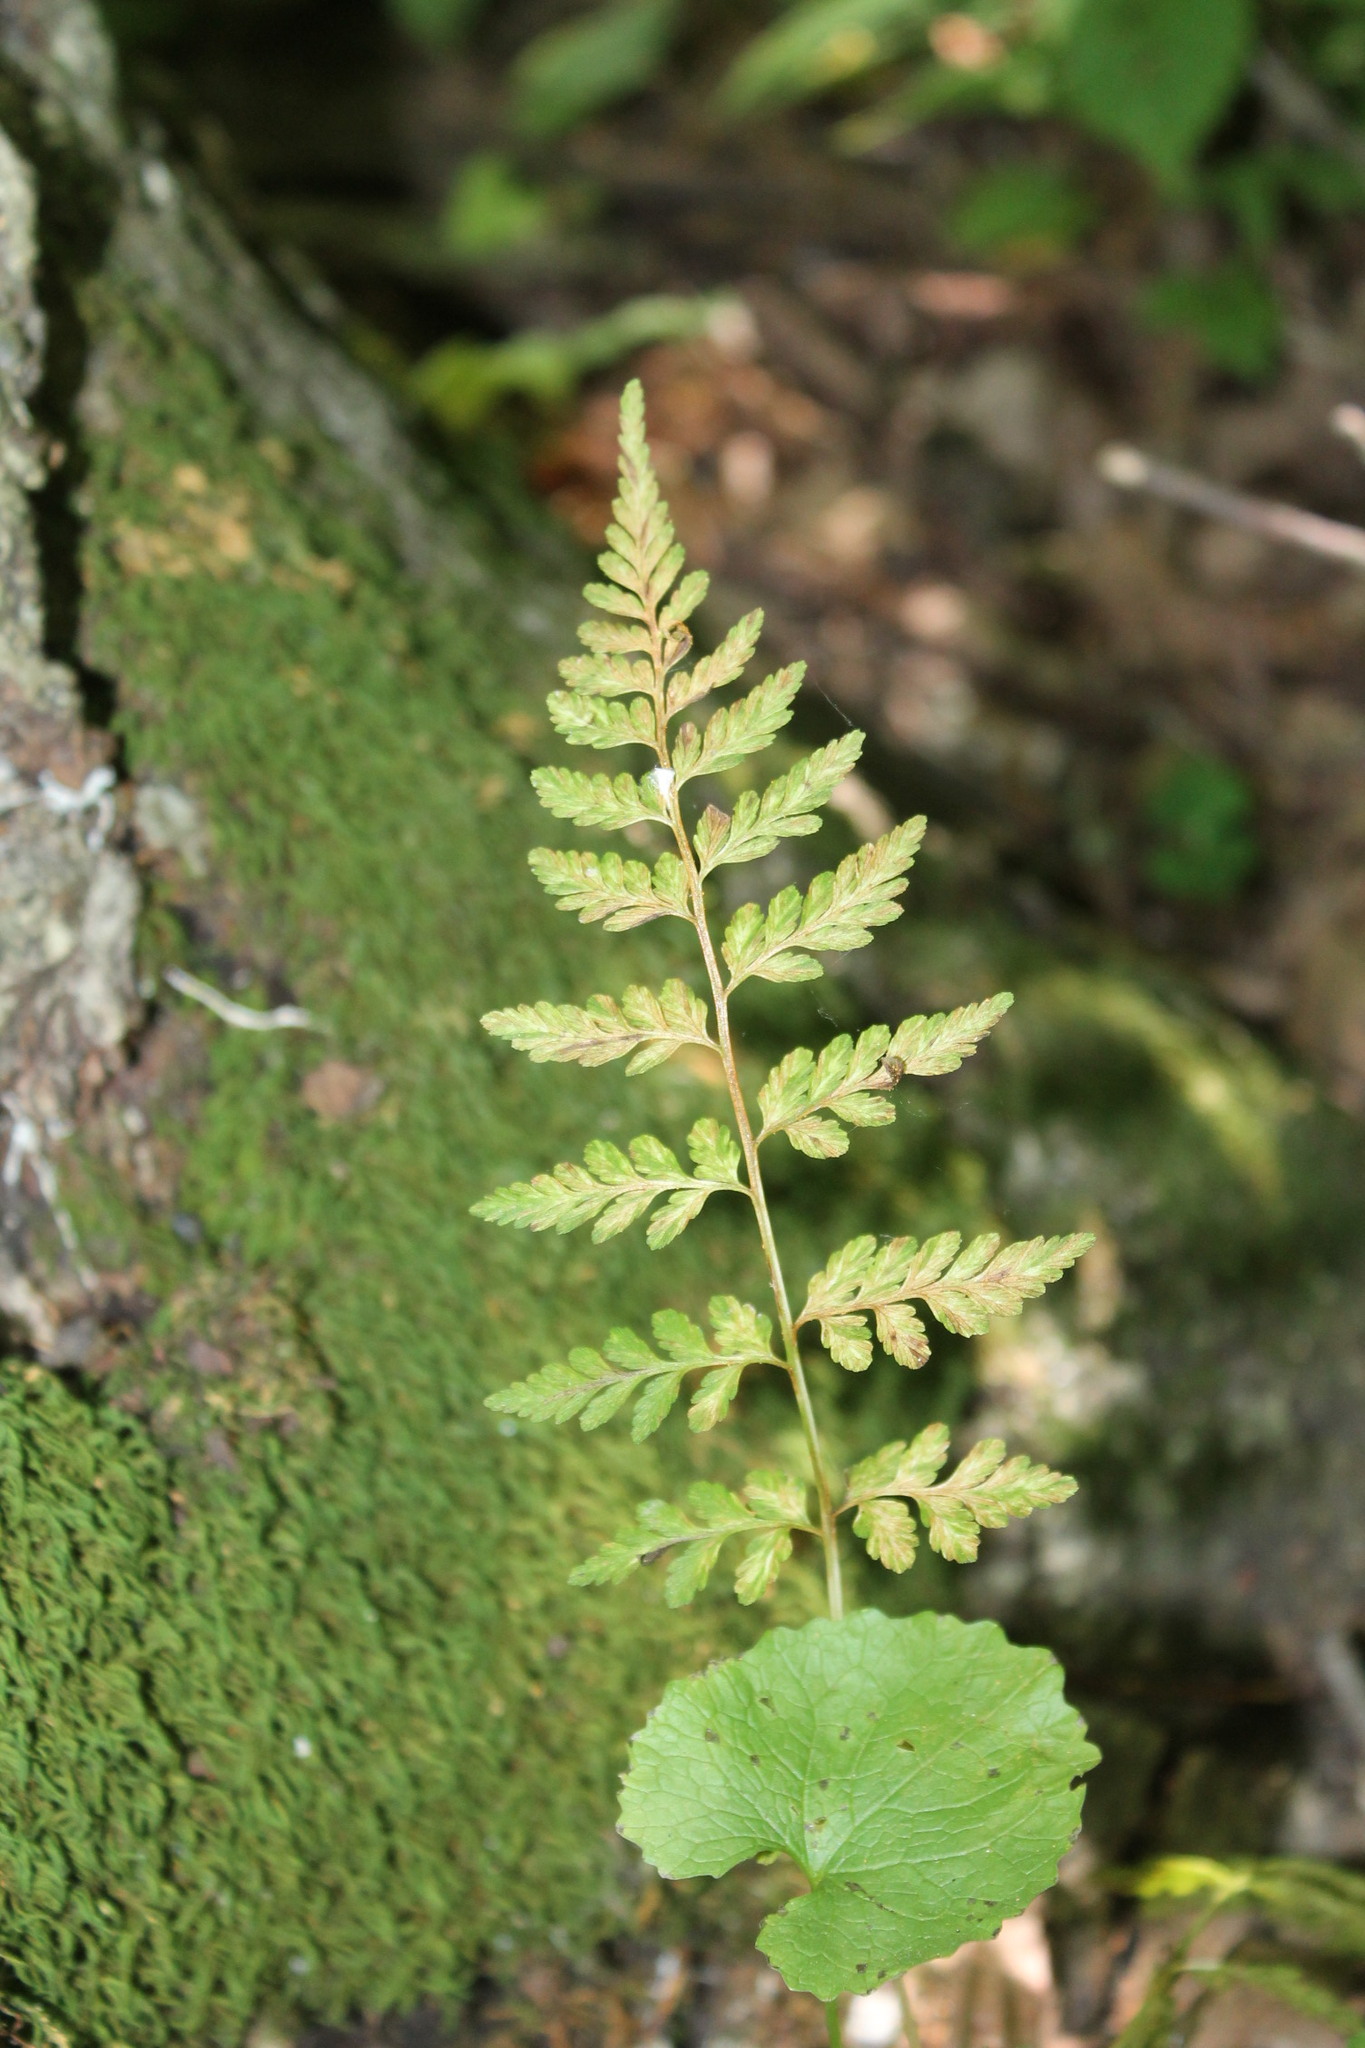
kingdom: Plantae
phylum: Tracheophyta
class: Polypodiopsida
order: Polypodiales
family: Cystopteridaceae
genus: Cystopteris
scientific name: Cystopteris protrusa
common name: Lowland brittle fern
